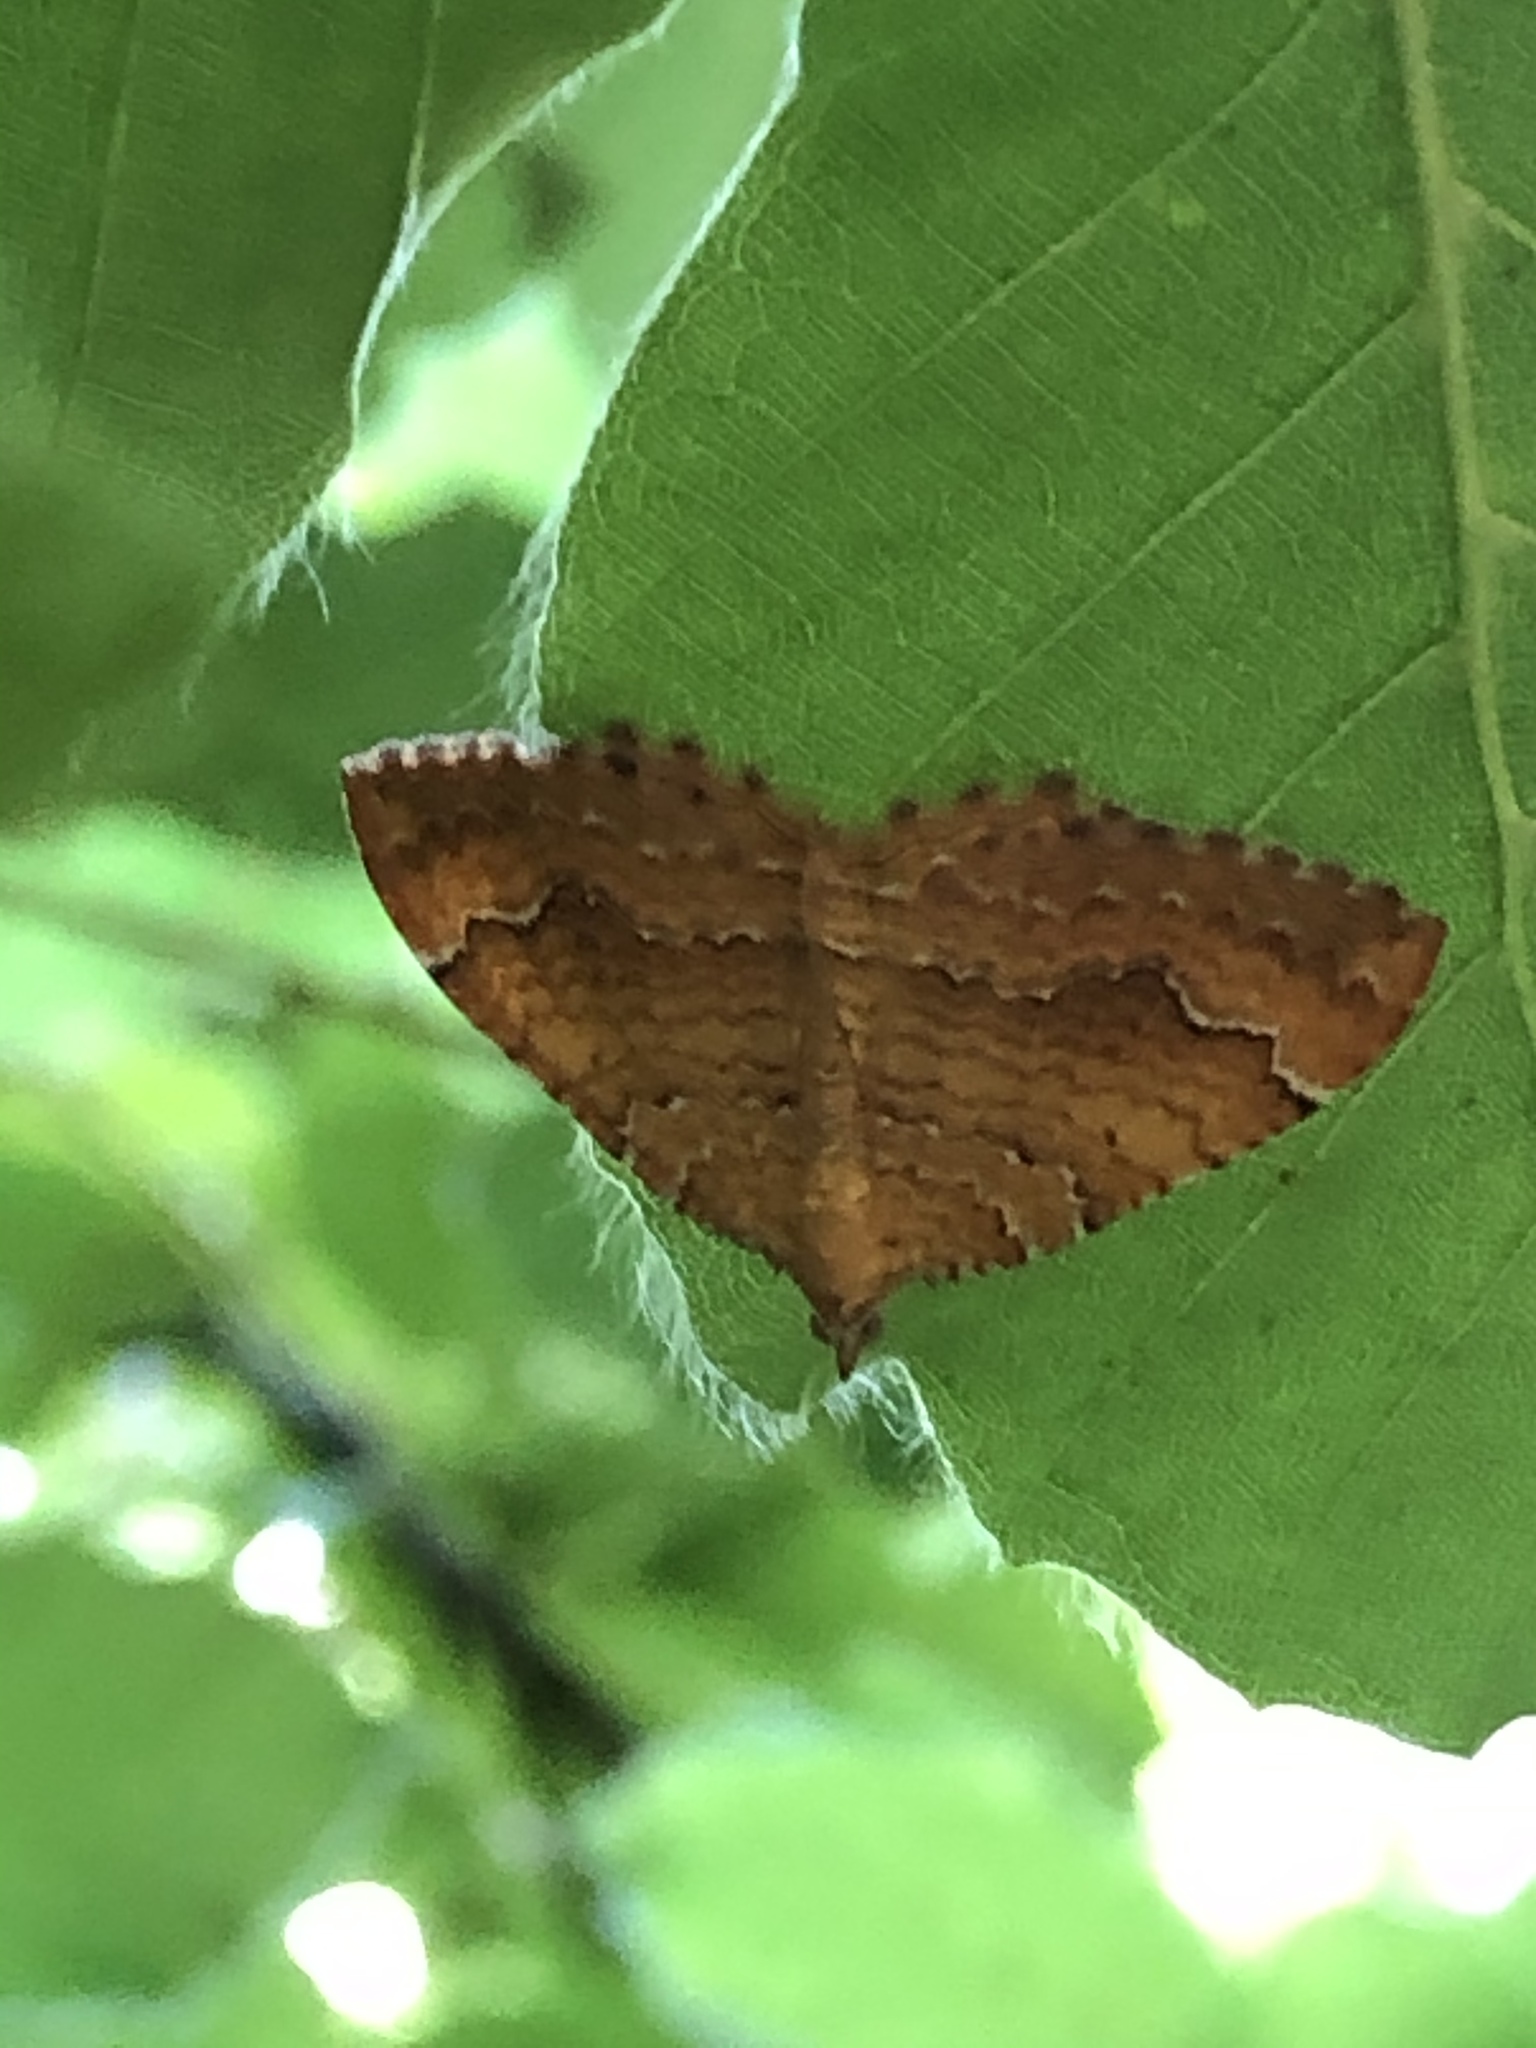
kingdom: Animalia
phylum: Arthropoda
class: Insecta
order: Lepidoptera
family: Geometridae
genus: Camptogramma
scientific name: Camptogramma bilineata
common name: Yellow shell
